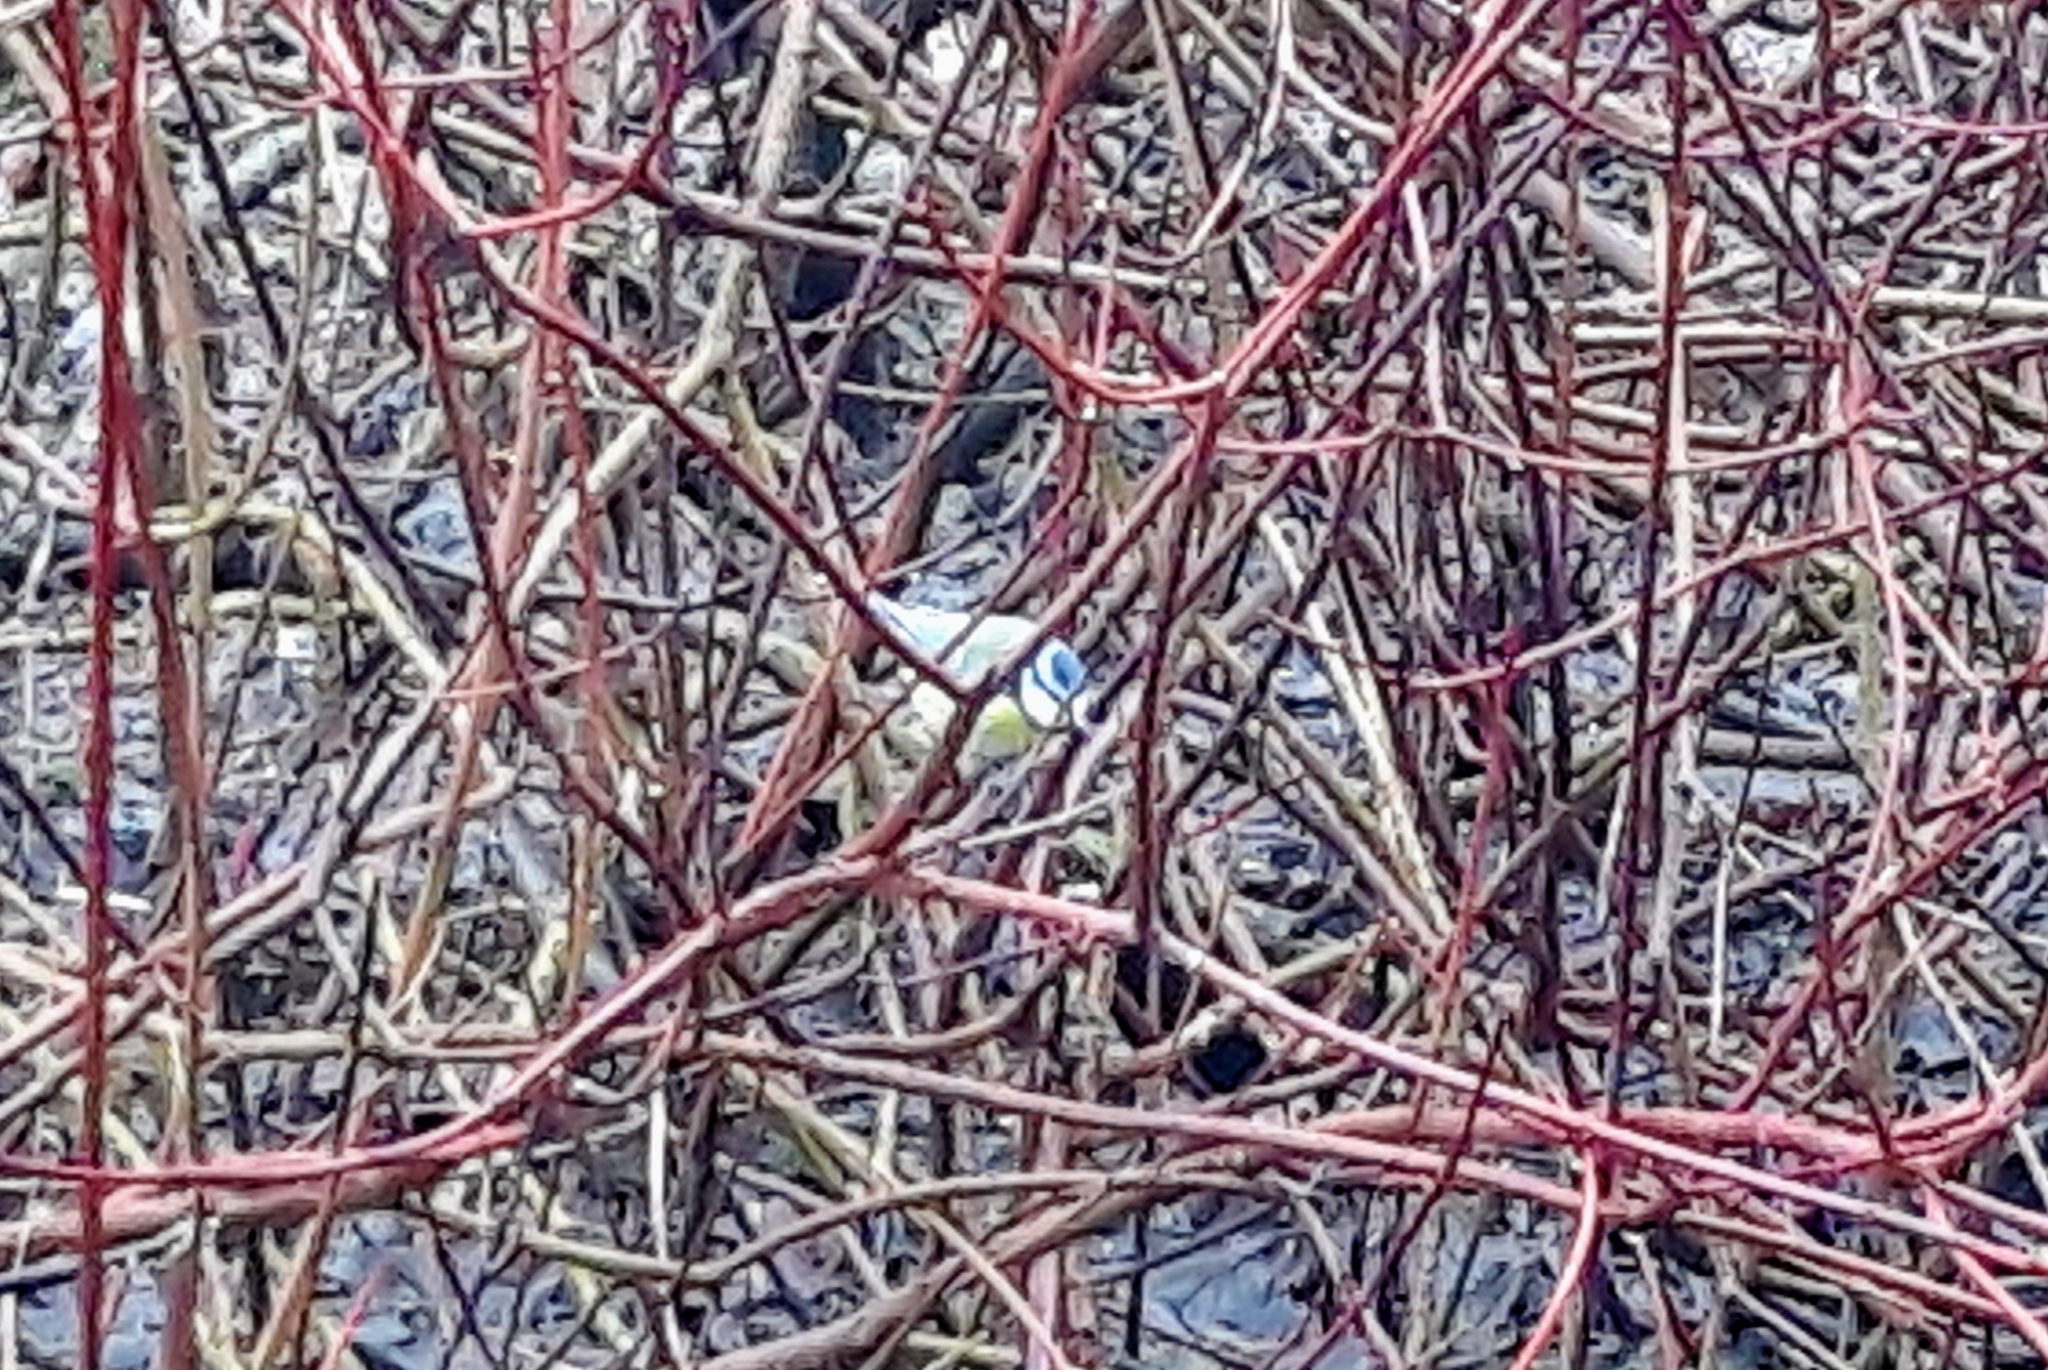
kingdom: Animalia
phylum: Chordata
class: Aves
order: Passeriformes
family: Paridae
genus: Cyanistes
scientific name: Cyanistes caeruleus
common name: Eurasian blue tit
